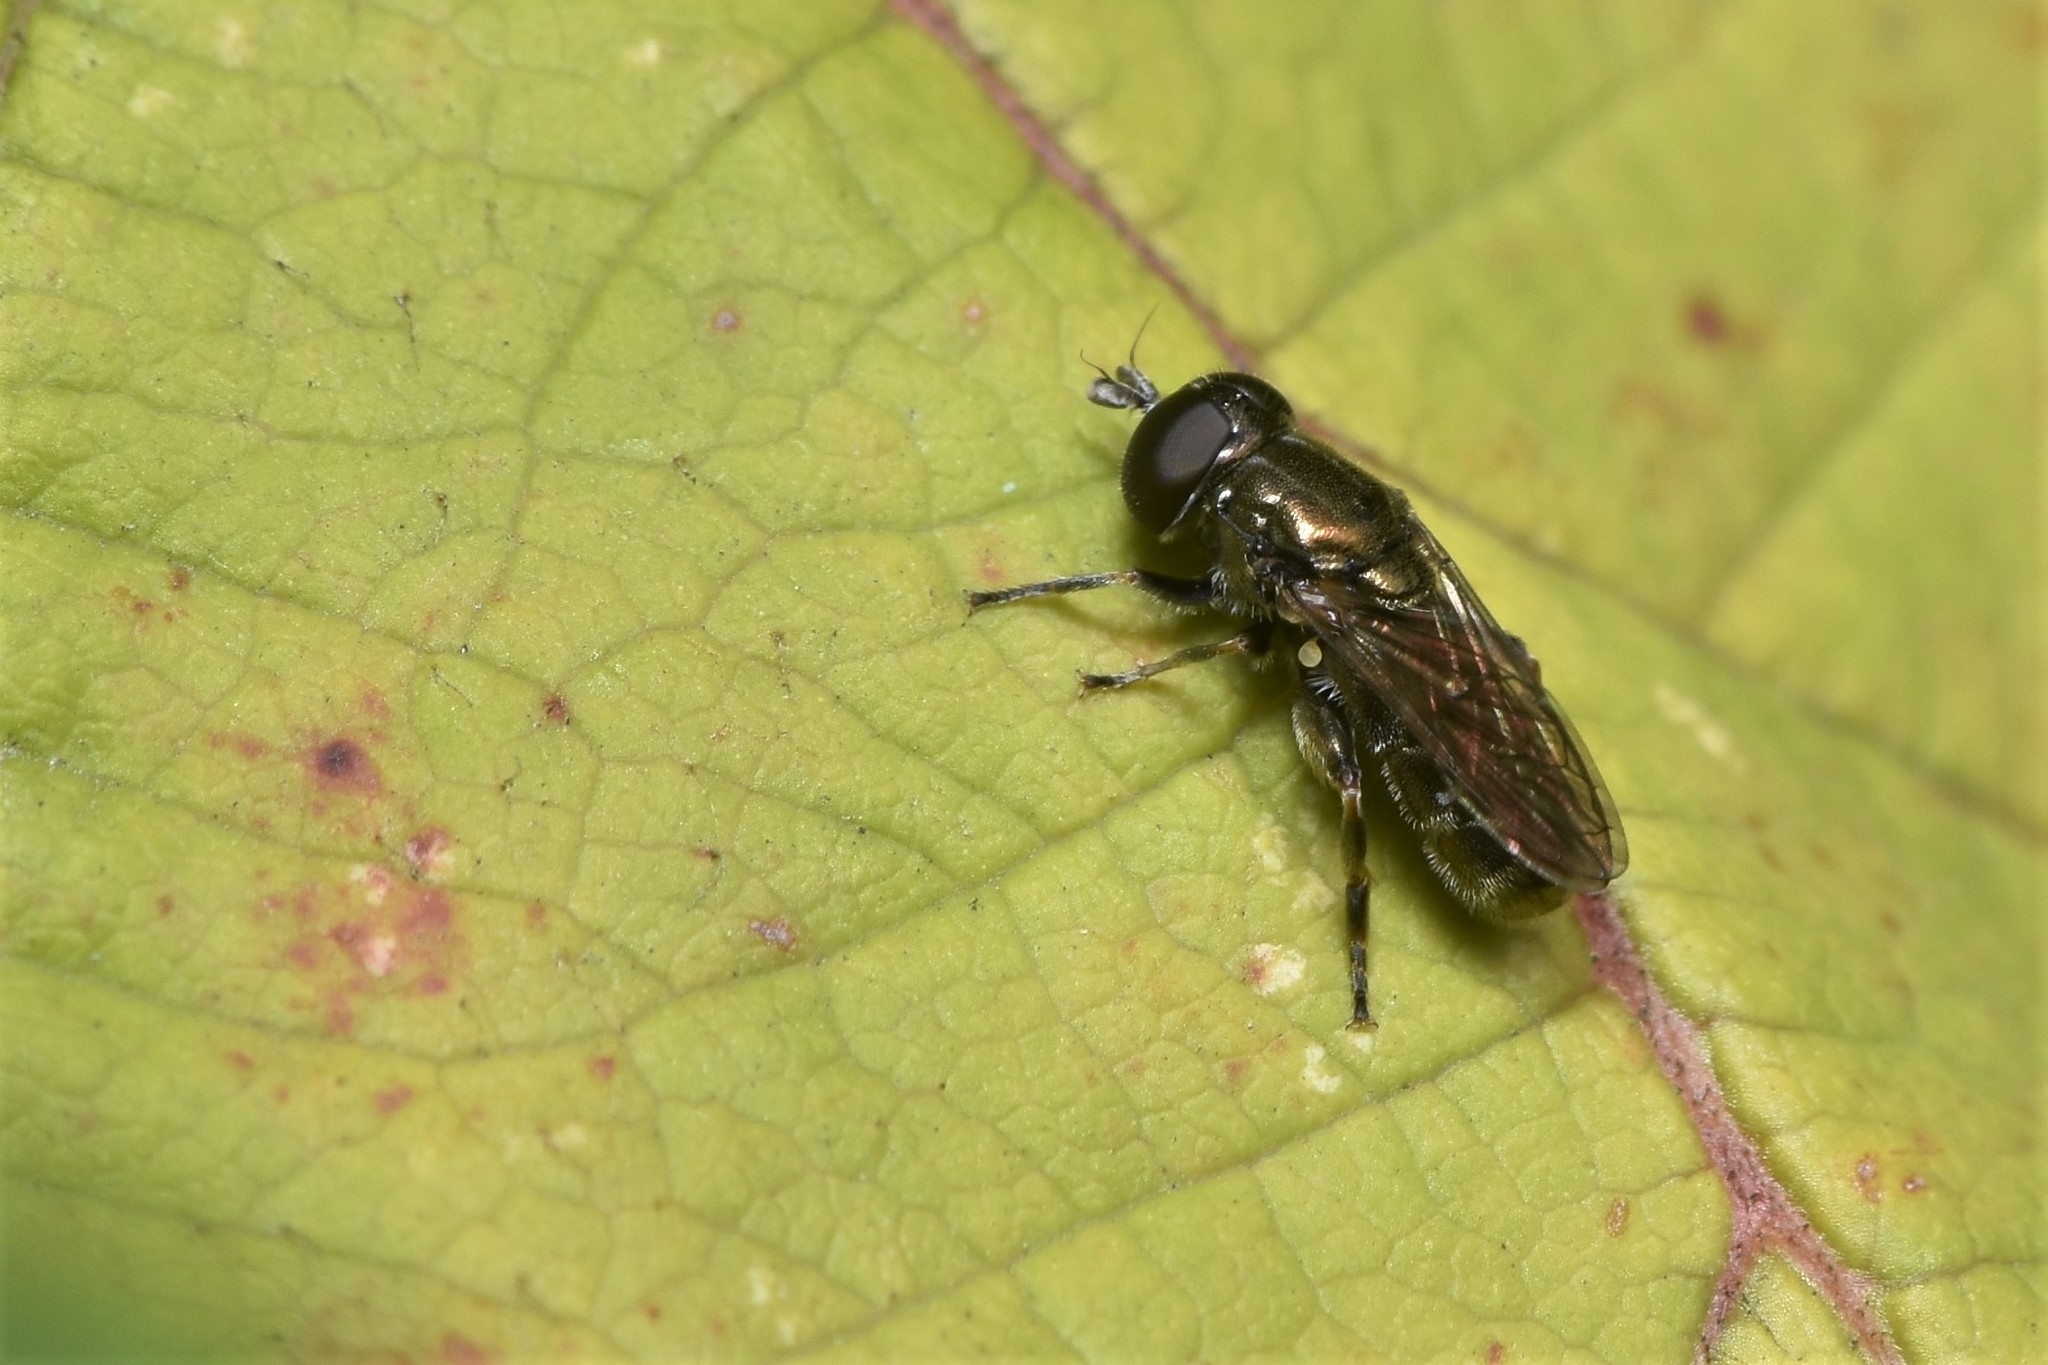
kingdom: Animalia
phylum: Arthropoda
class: Insecta
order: Diptera
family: Syrphidae
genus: Eumerus
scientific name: Eumerus
